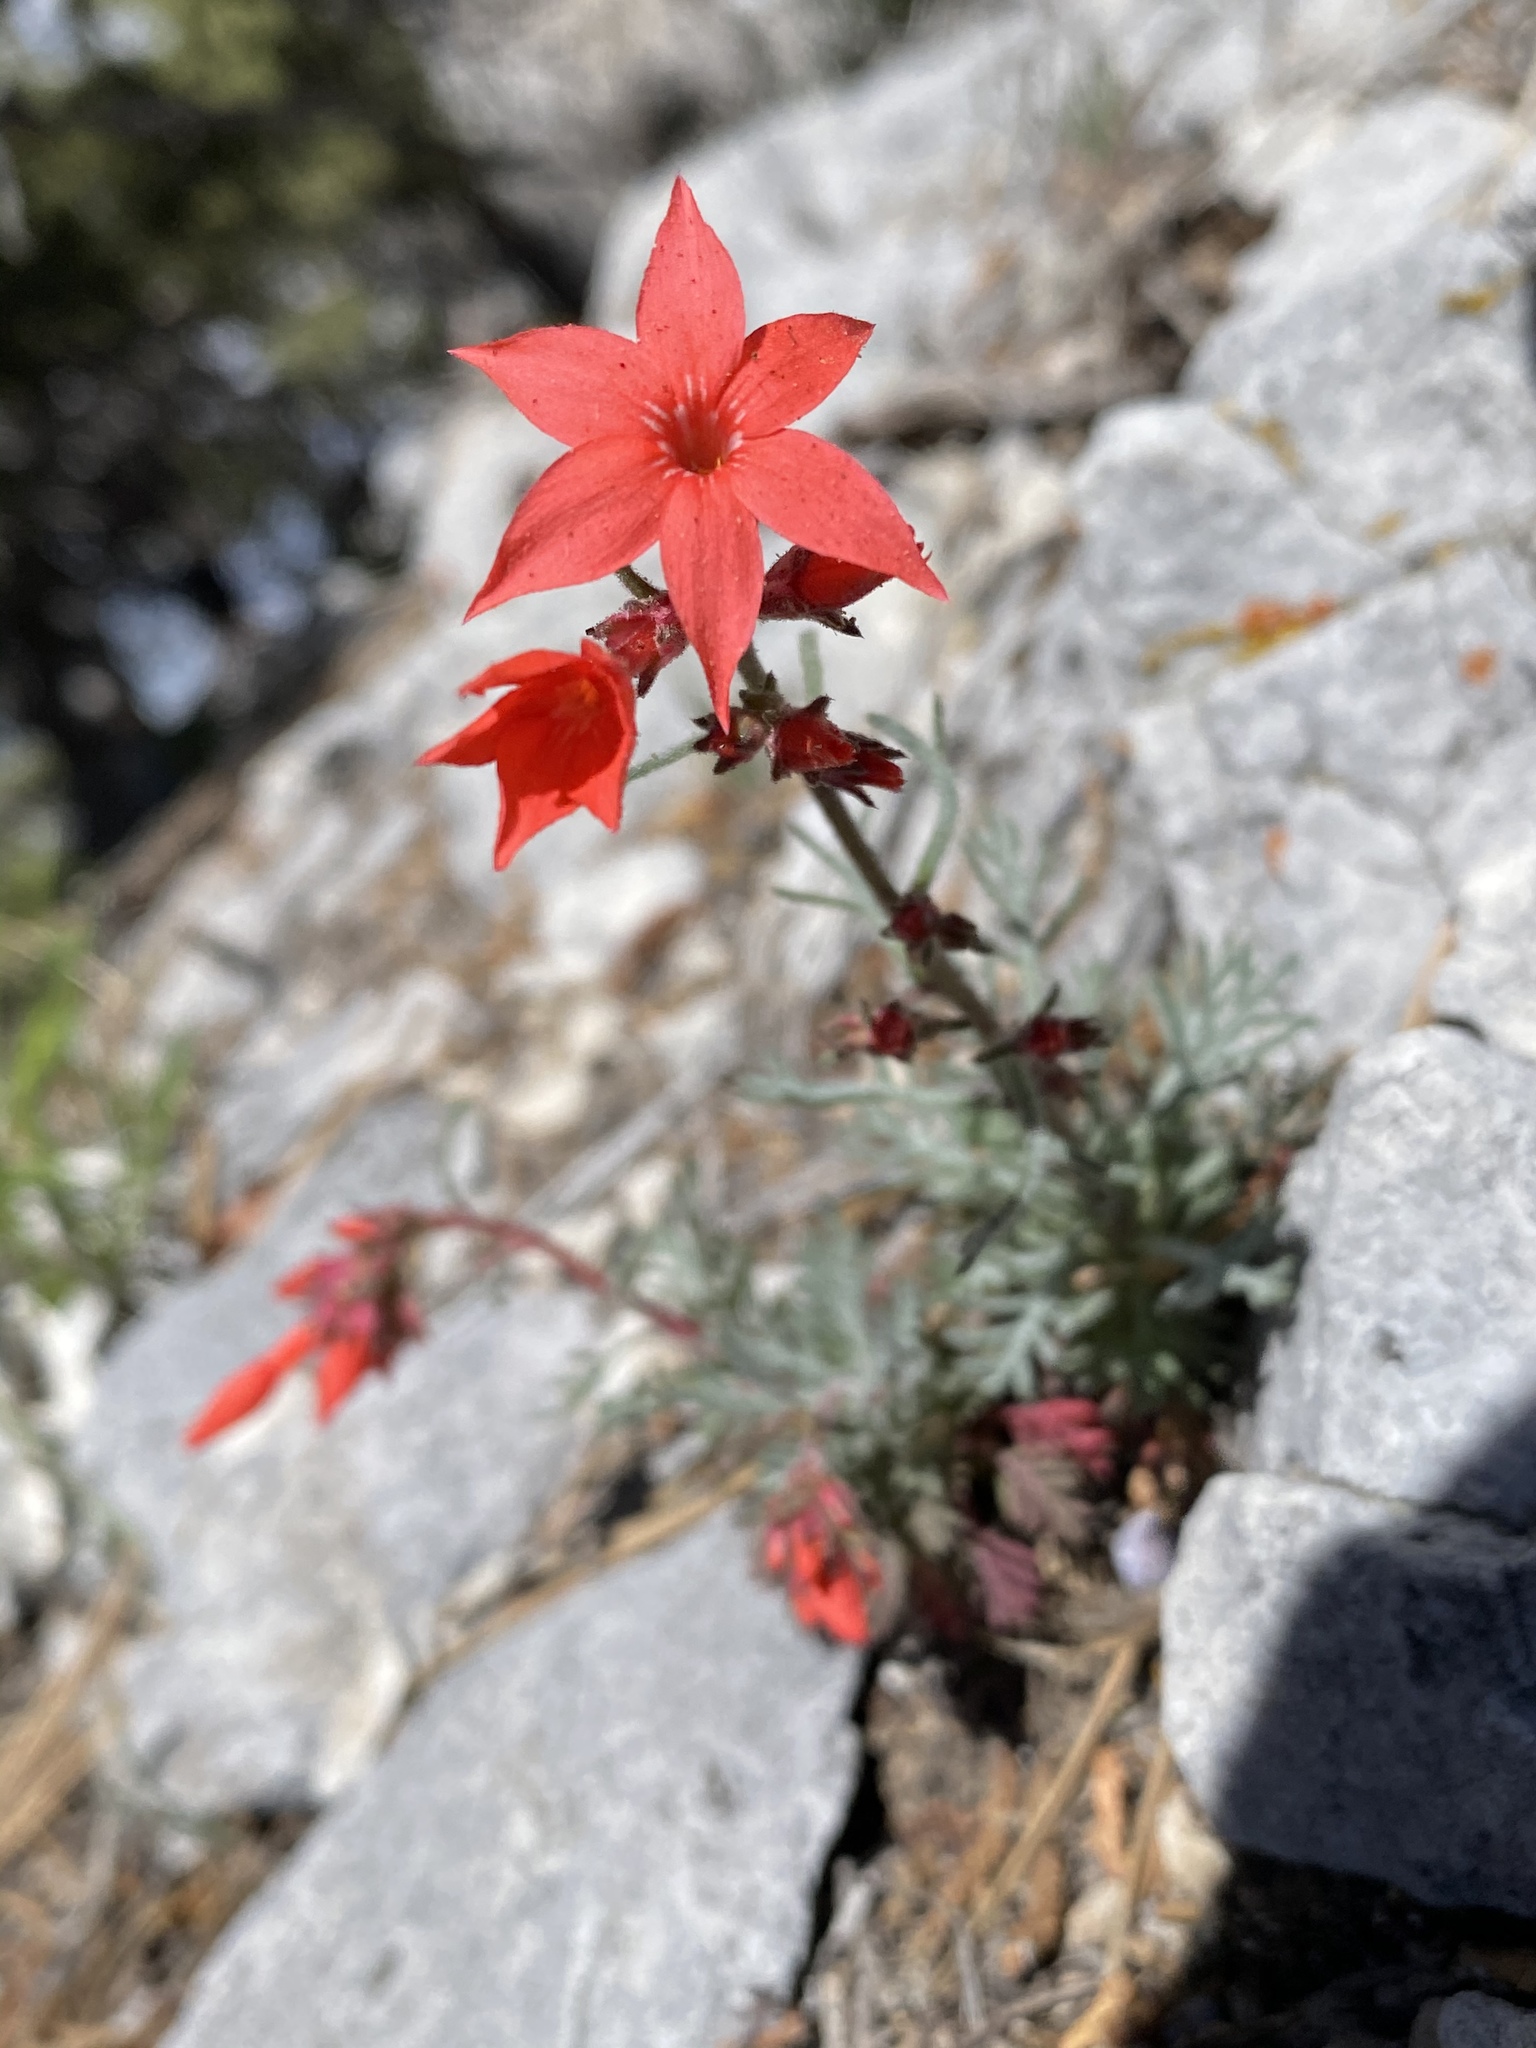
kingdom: Plantae
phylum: Tracheophyta
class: Magnoliopsida
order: Ericales
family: Polemoniaceae
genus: Ipomopsis
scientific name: Ipomopsis arizonica
